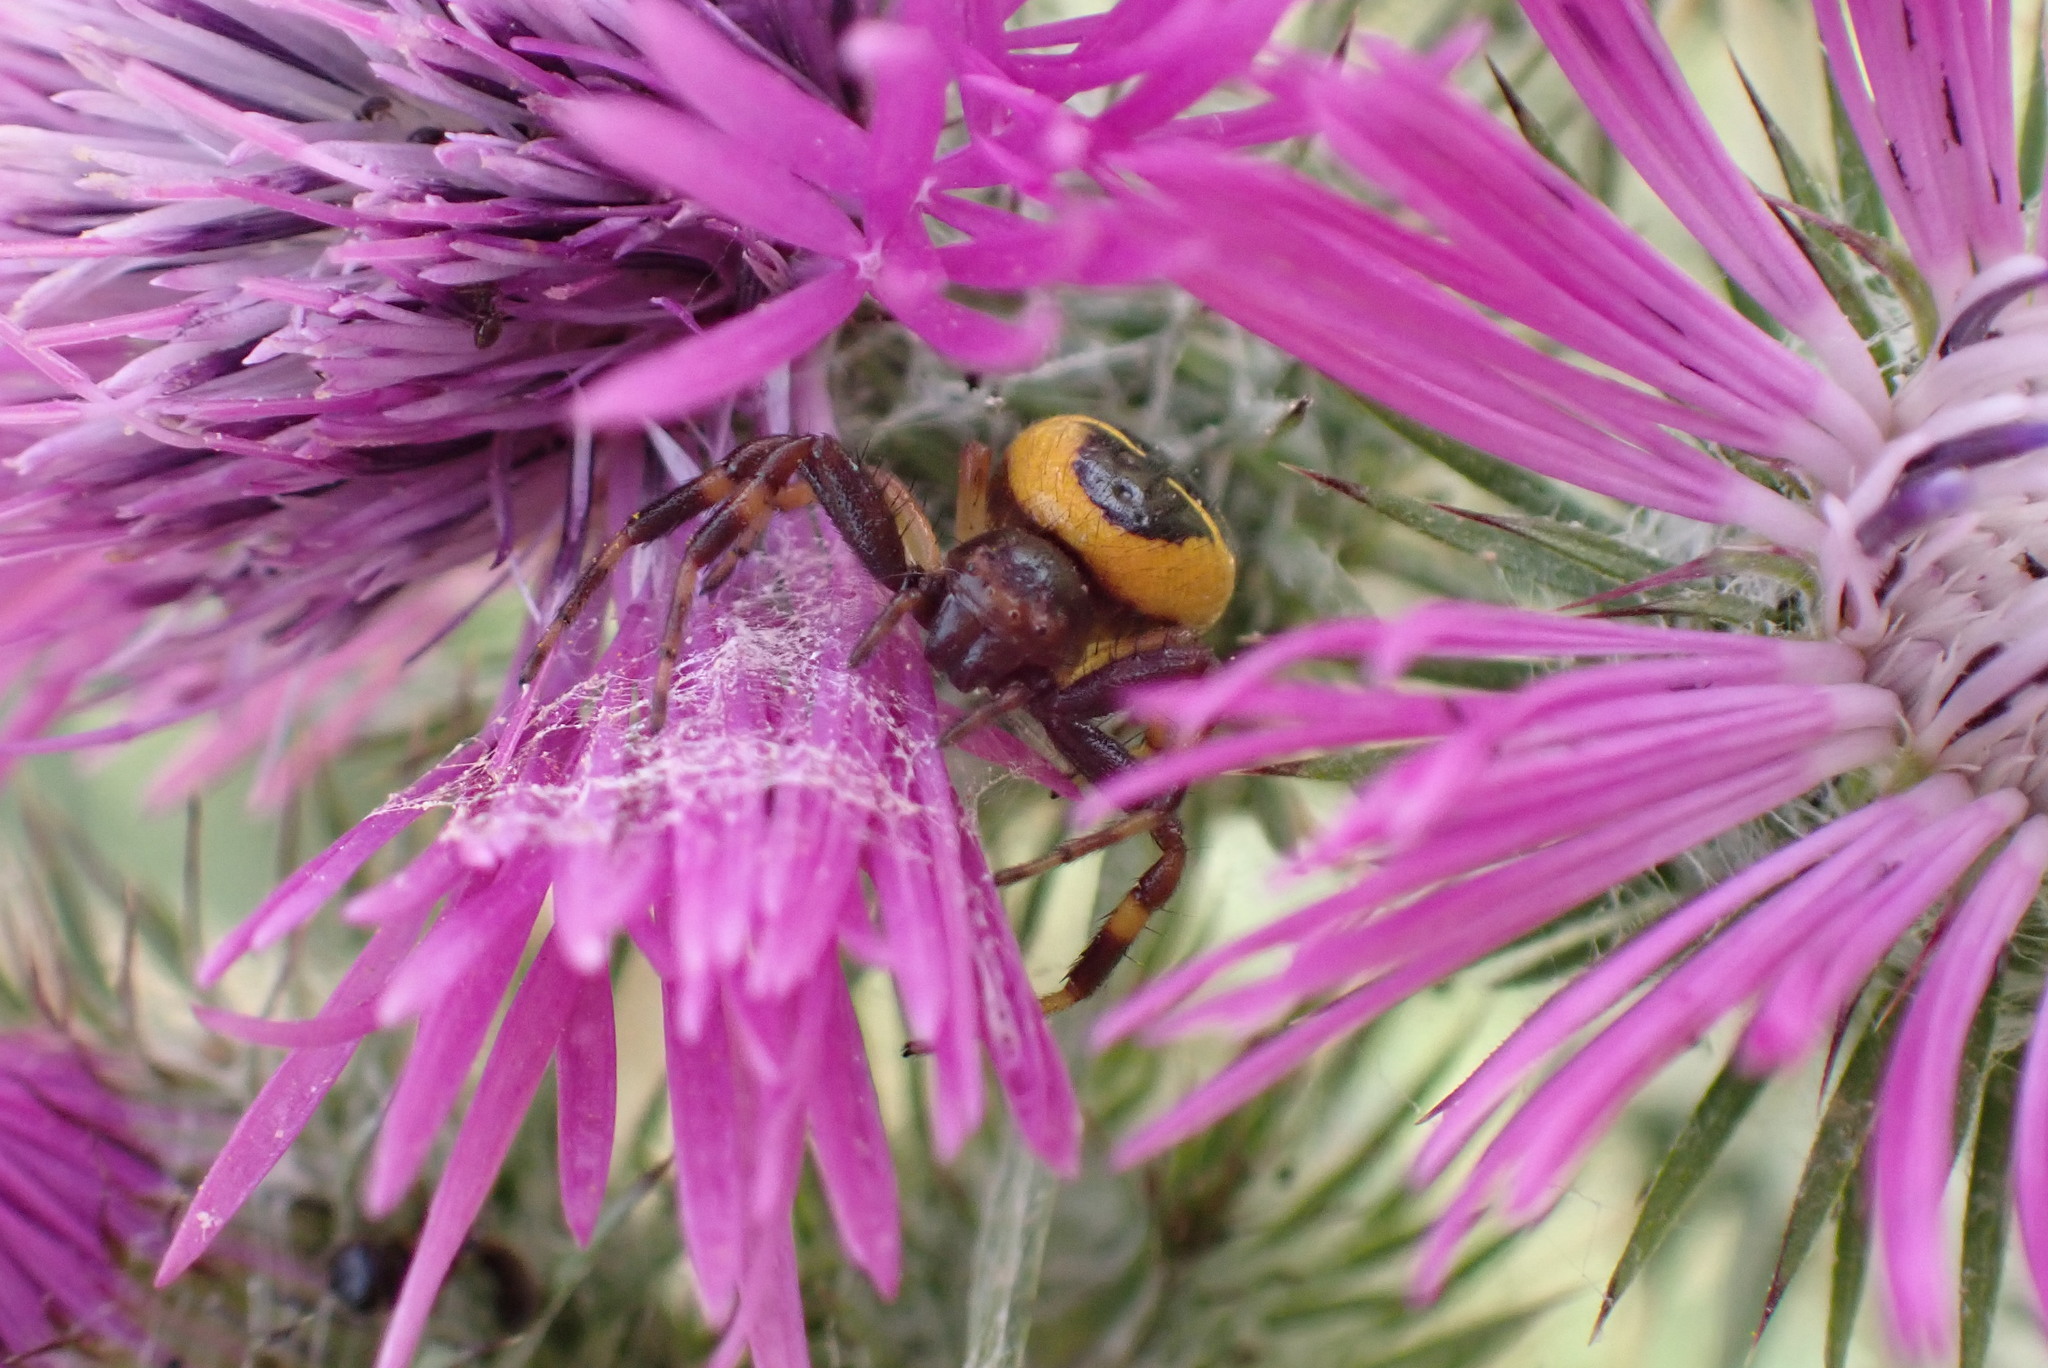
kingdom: Animalia
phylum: Arthropoda
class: Arachnida
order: Araneae
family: Thomisidae
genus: Synema
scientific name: Synema globosum
